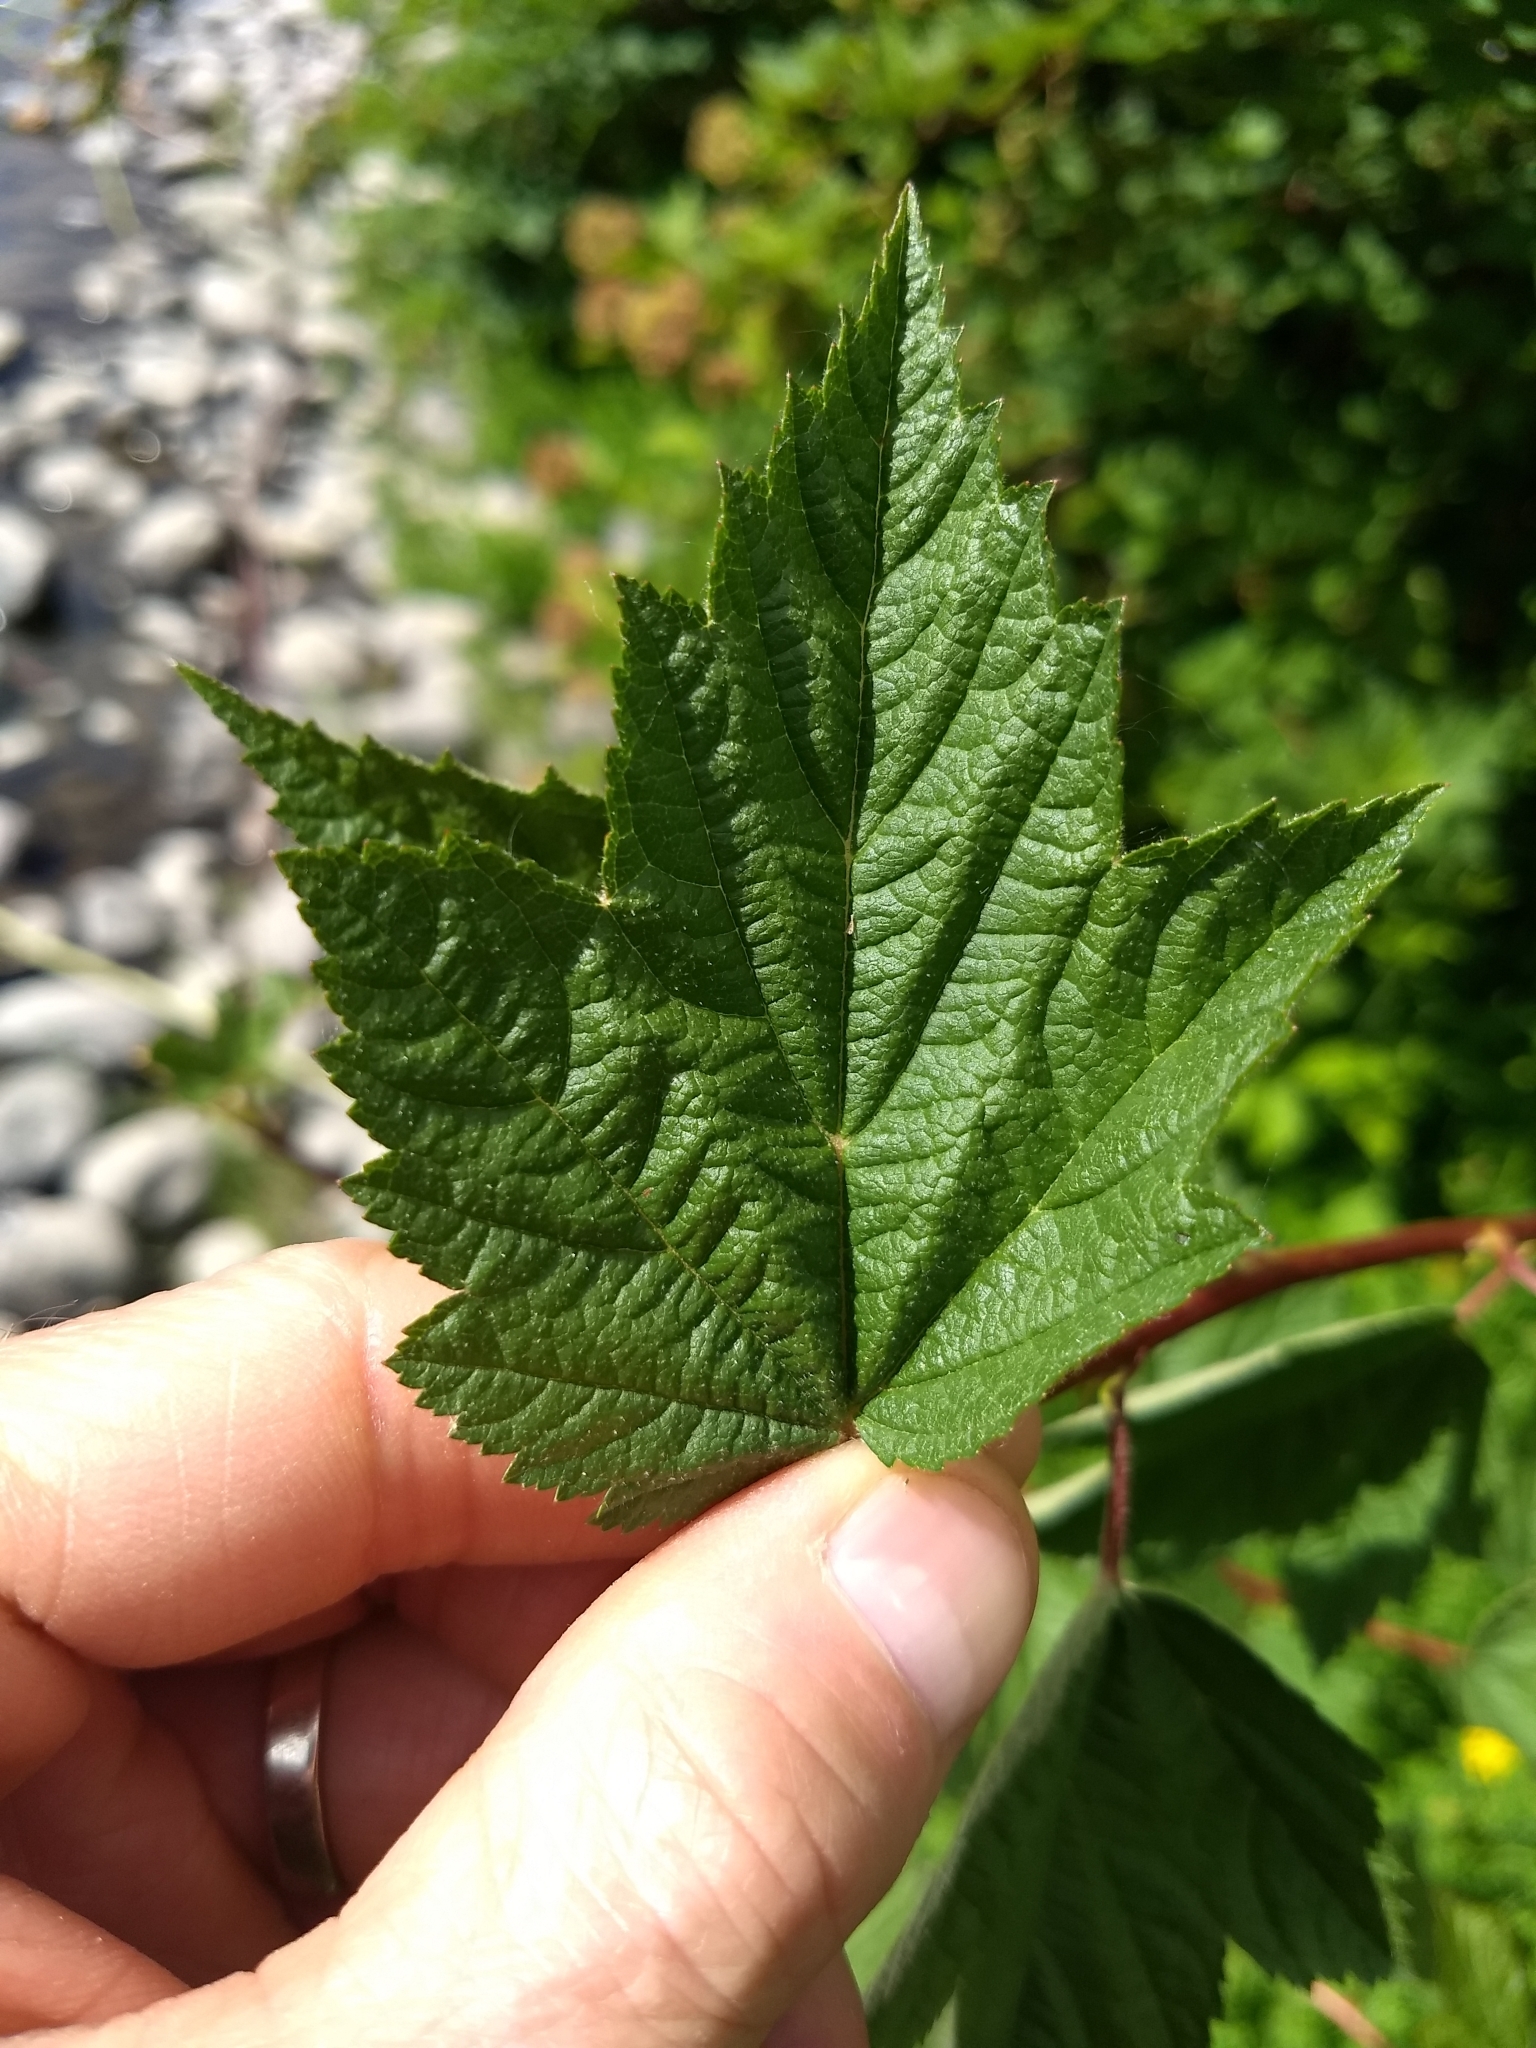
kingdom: Plantae
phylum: Tracheophyta
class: Magnoliopsida
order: Rosales
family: Rosaceae
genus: Physocarpus
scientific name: Physocarpus capitatus
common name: Pacific ninebark
